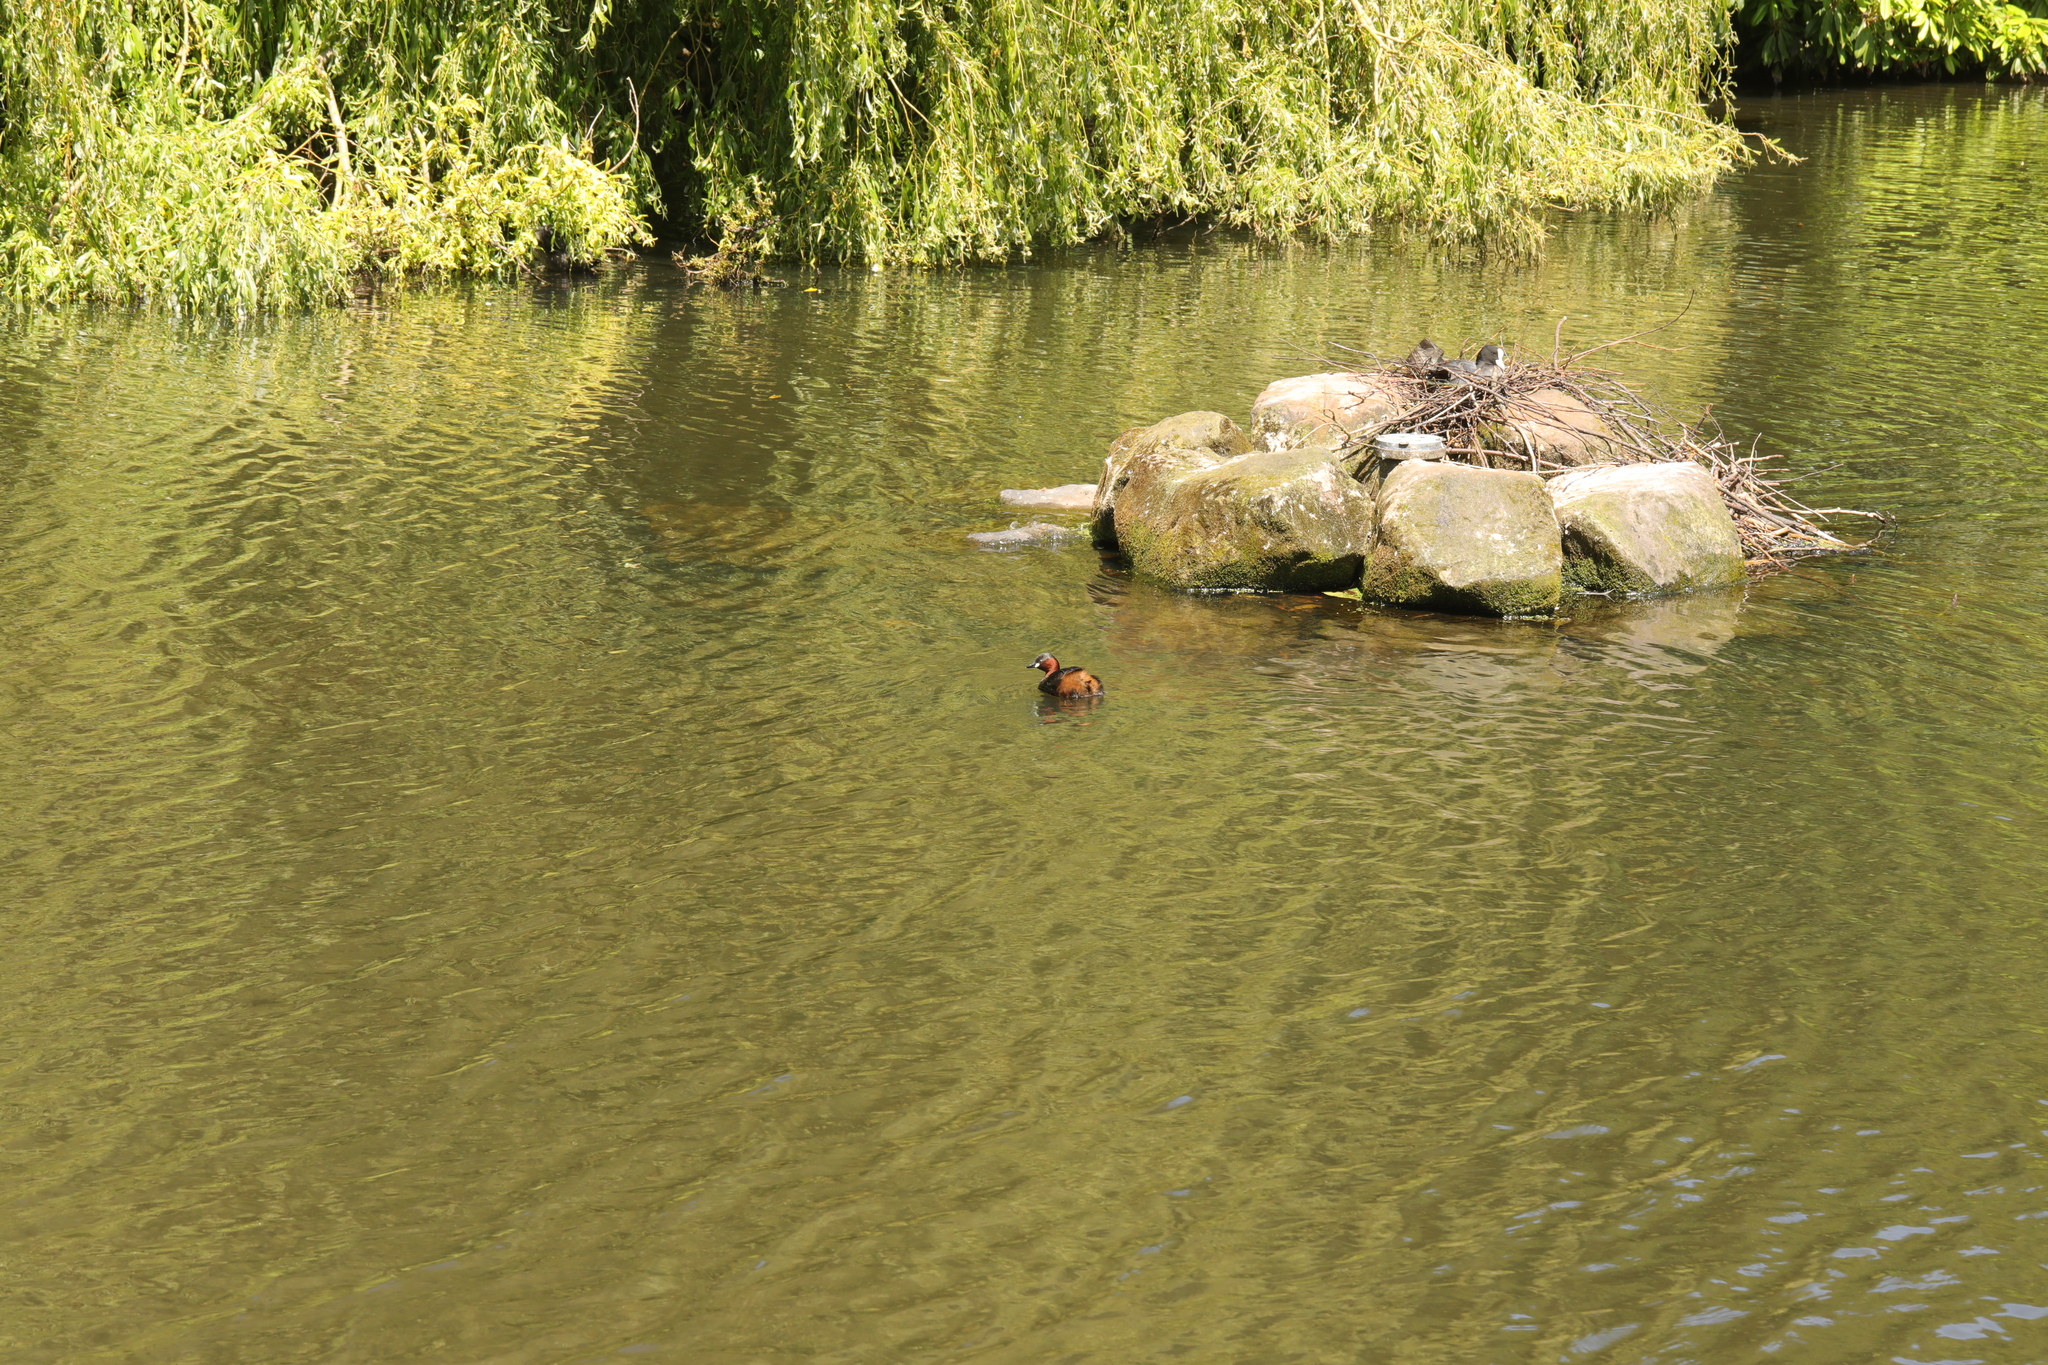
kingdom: Animalia
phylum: Chordata
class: Aves
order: Podicipediformes
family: Podicipedidae
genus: Tachybaptus
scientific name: Tachybaptus ruficollis
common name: Little grebe
